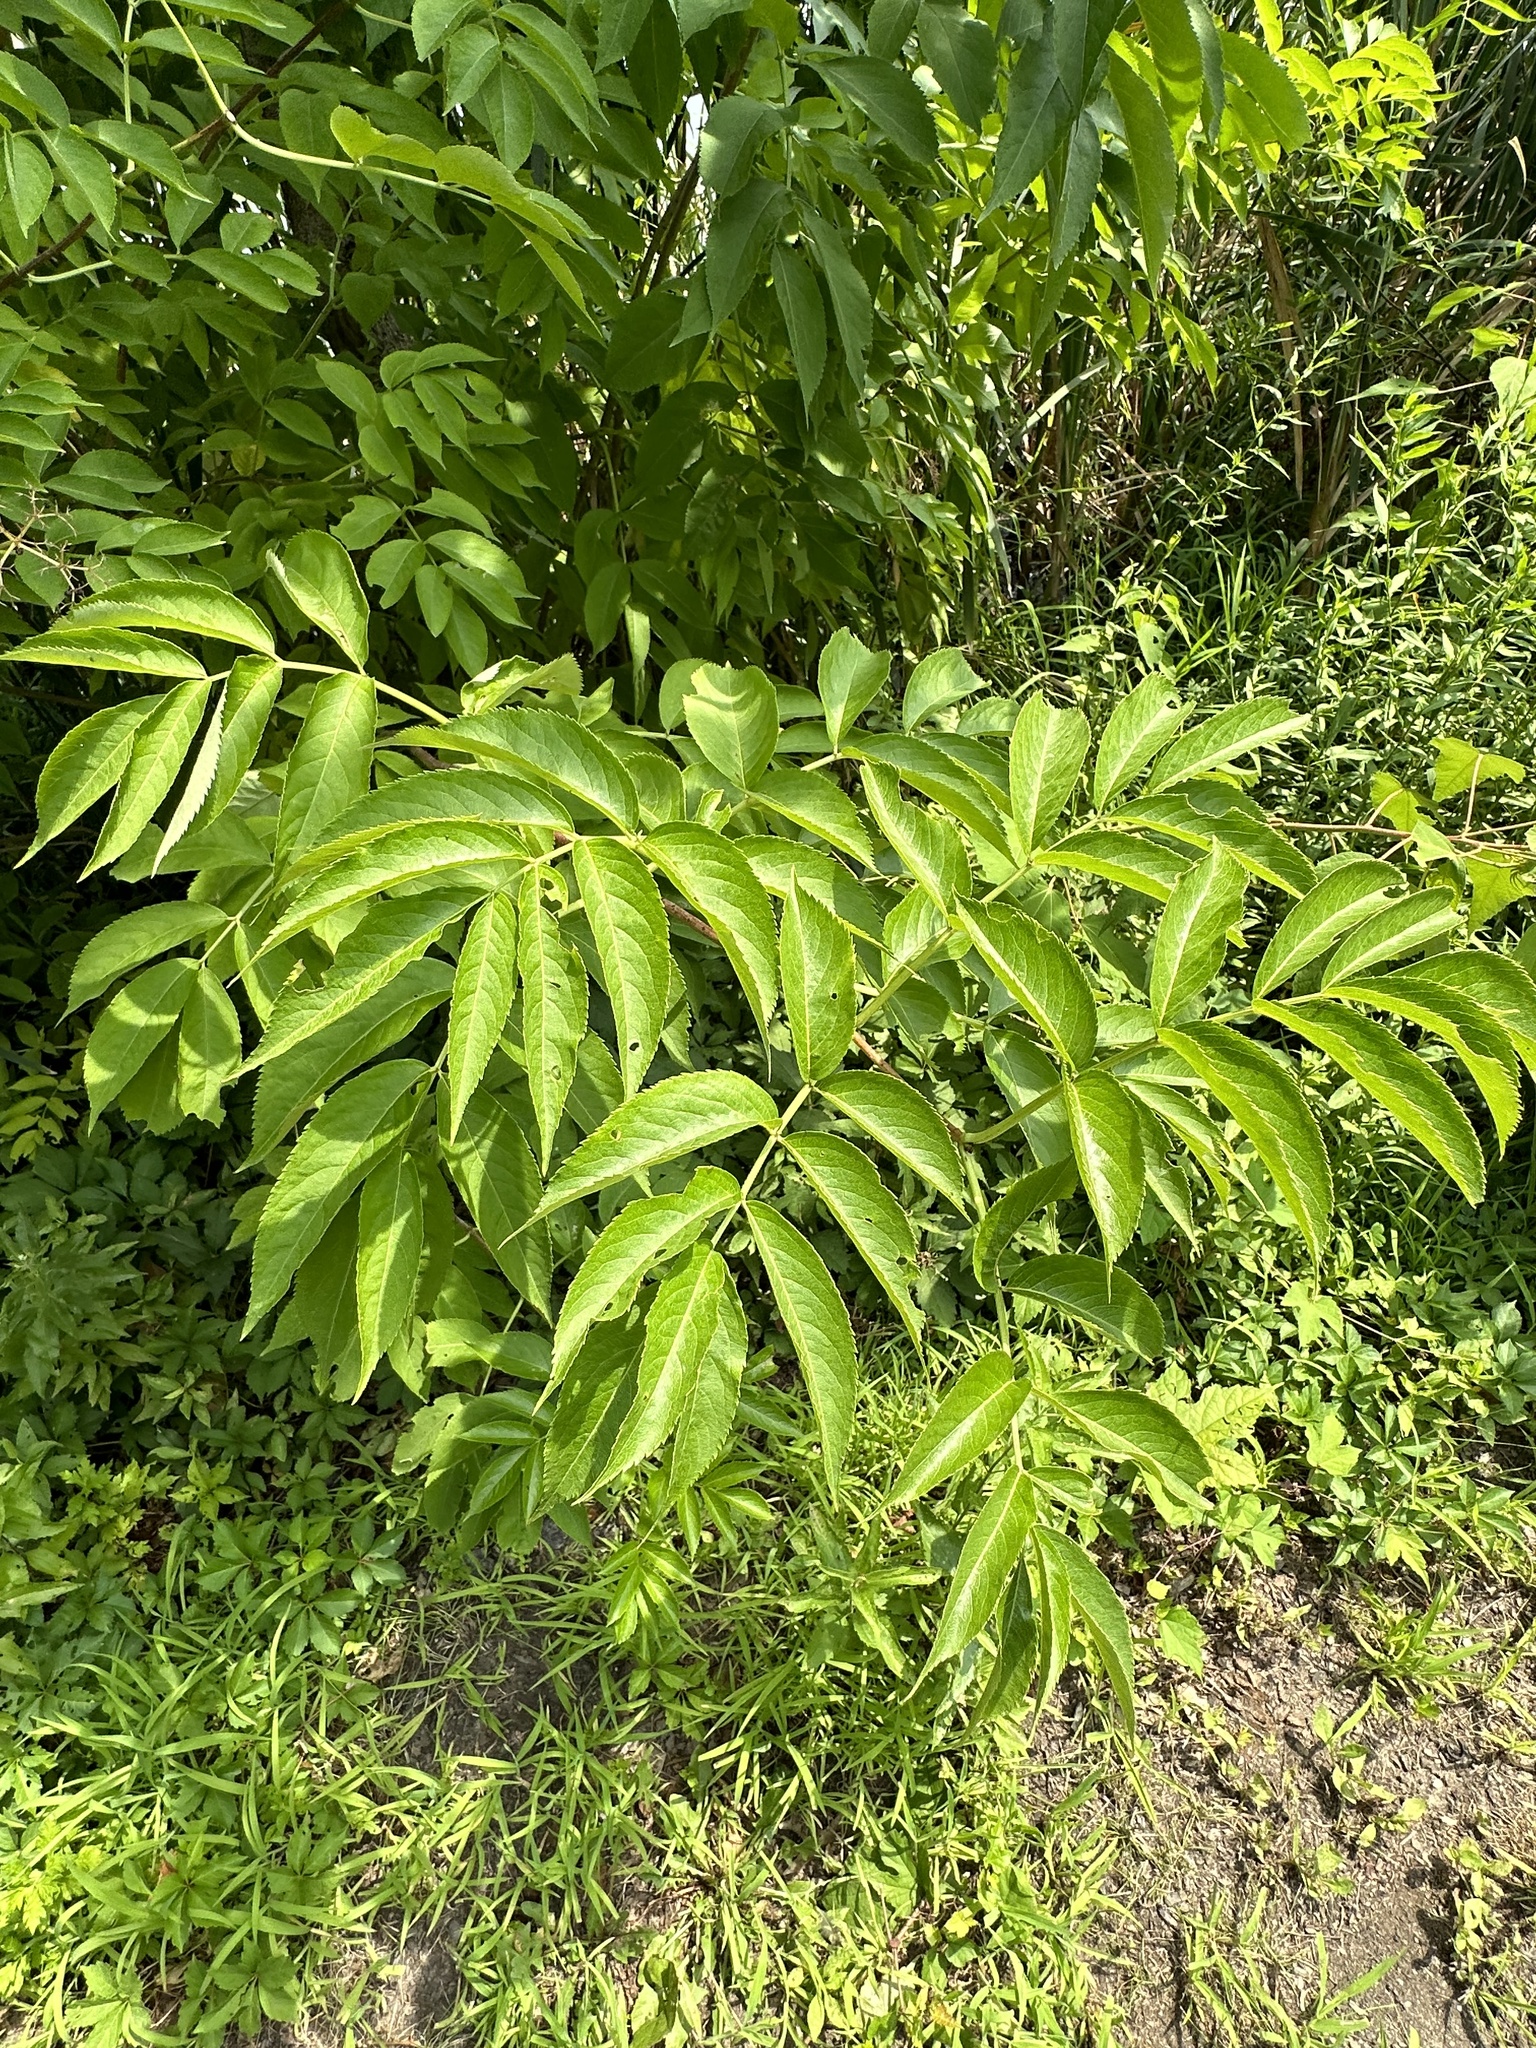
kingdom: Plantae
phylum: Tracheophyta
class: Magnoliopsida
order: Dipsacales
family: Viburnaceae
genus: Sambucus
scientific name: Sambucus canadensis
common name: American elder
